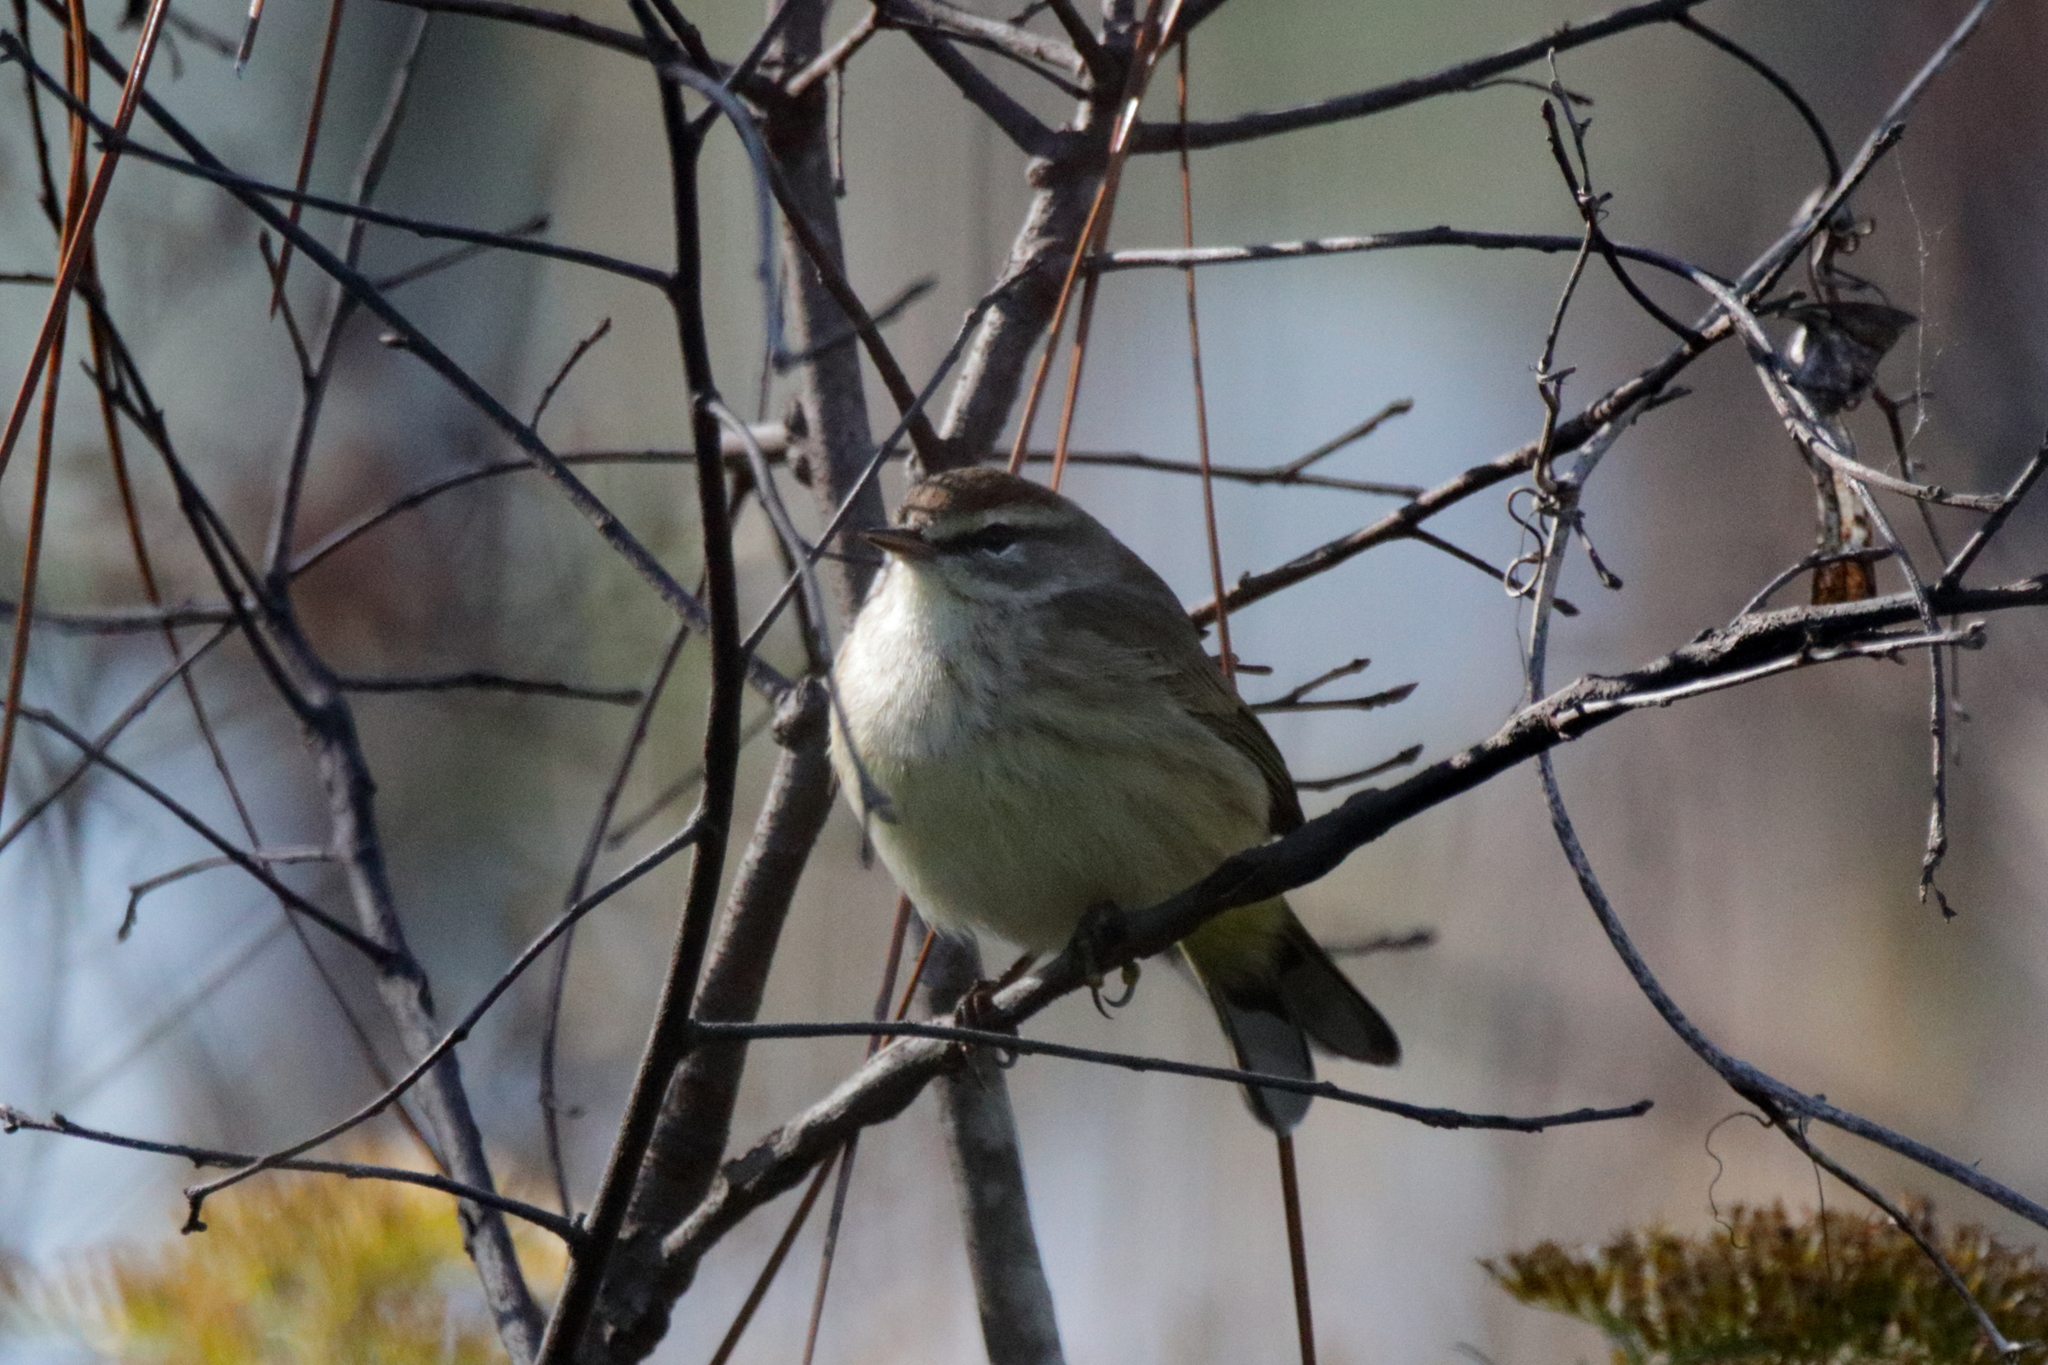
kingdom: Animalia
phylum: Chordata
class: Aves
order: Passeriformes
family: Parulidae
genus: Setophaga
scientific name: Setophaga palmarum
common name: Palm warbler
